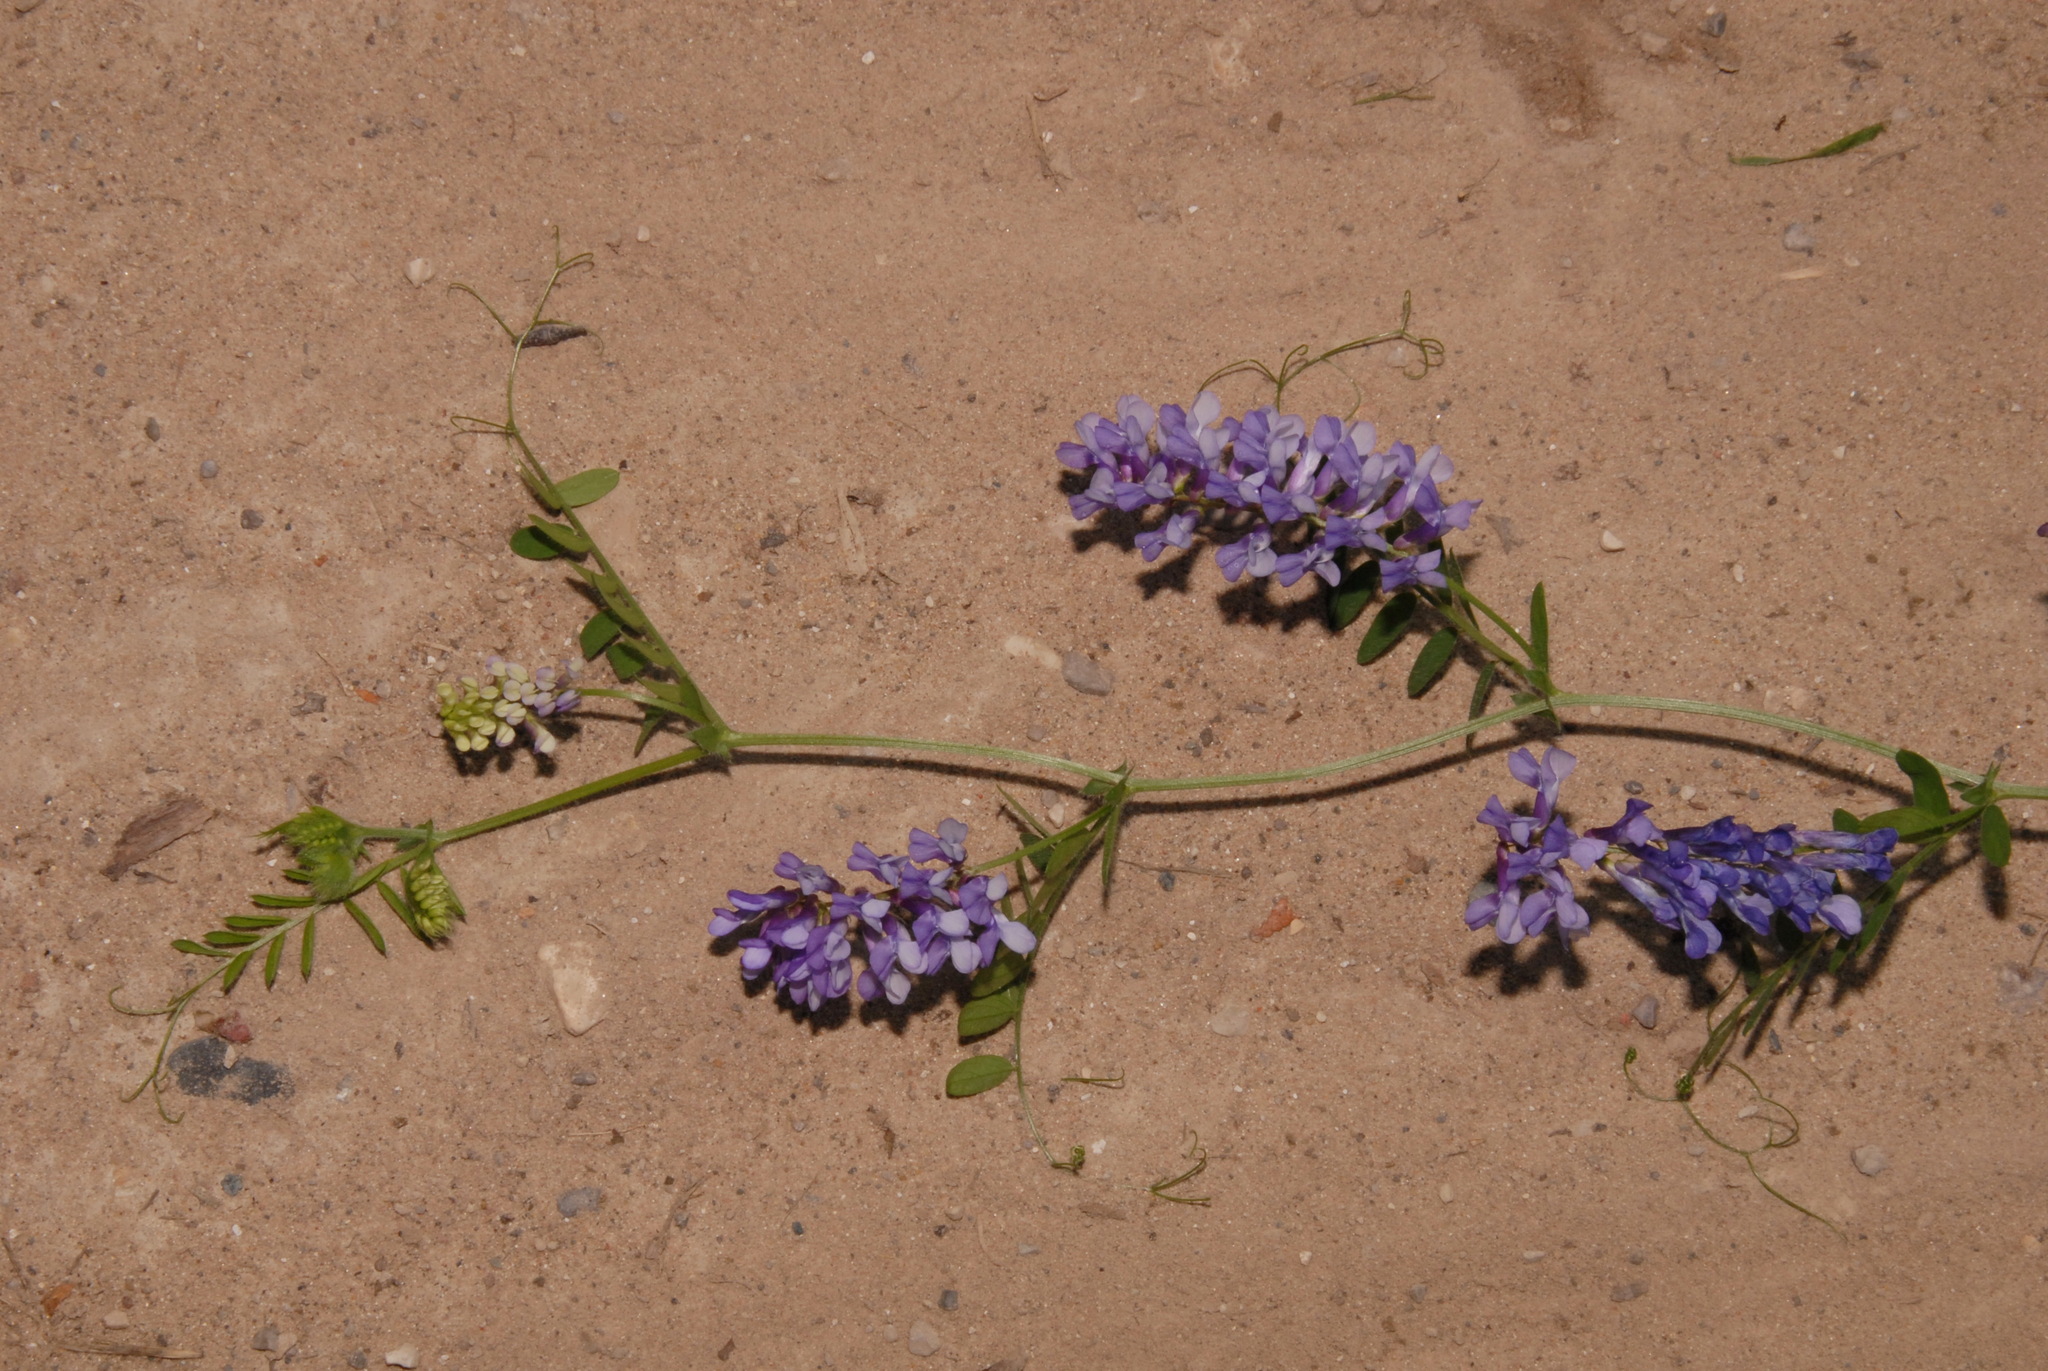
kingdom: Plantae
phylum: Tracheophyta
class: Magnoliopsida
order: Fabales
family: Fabaceae
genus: Vicia
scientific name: Vicia villosa
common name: Fodder vetch
